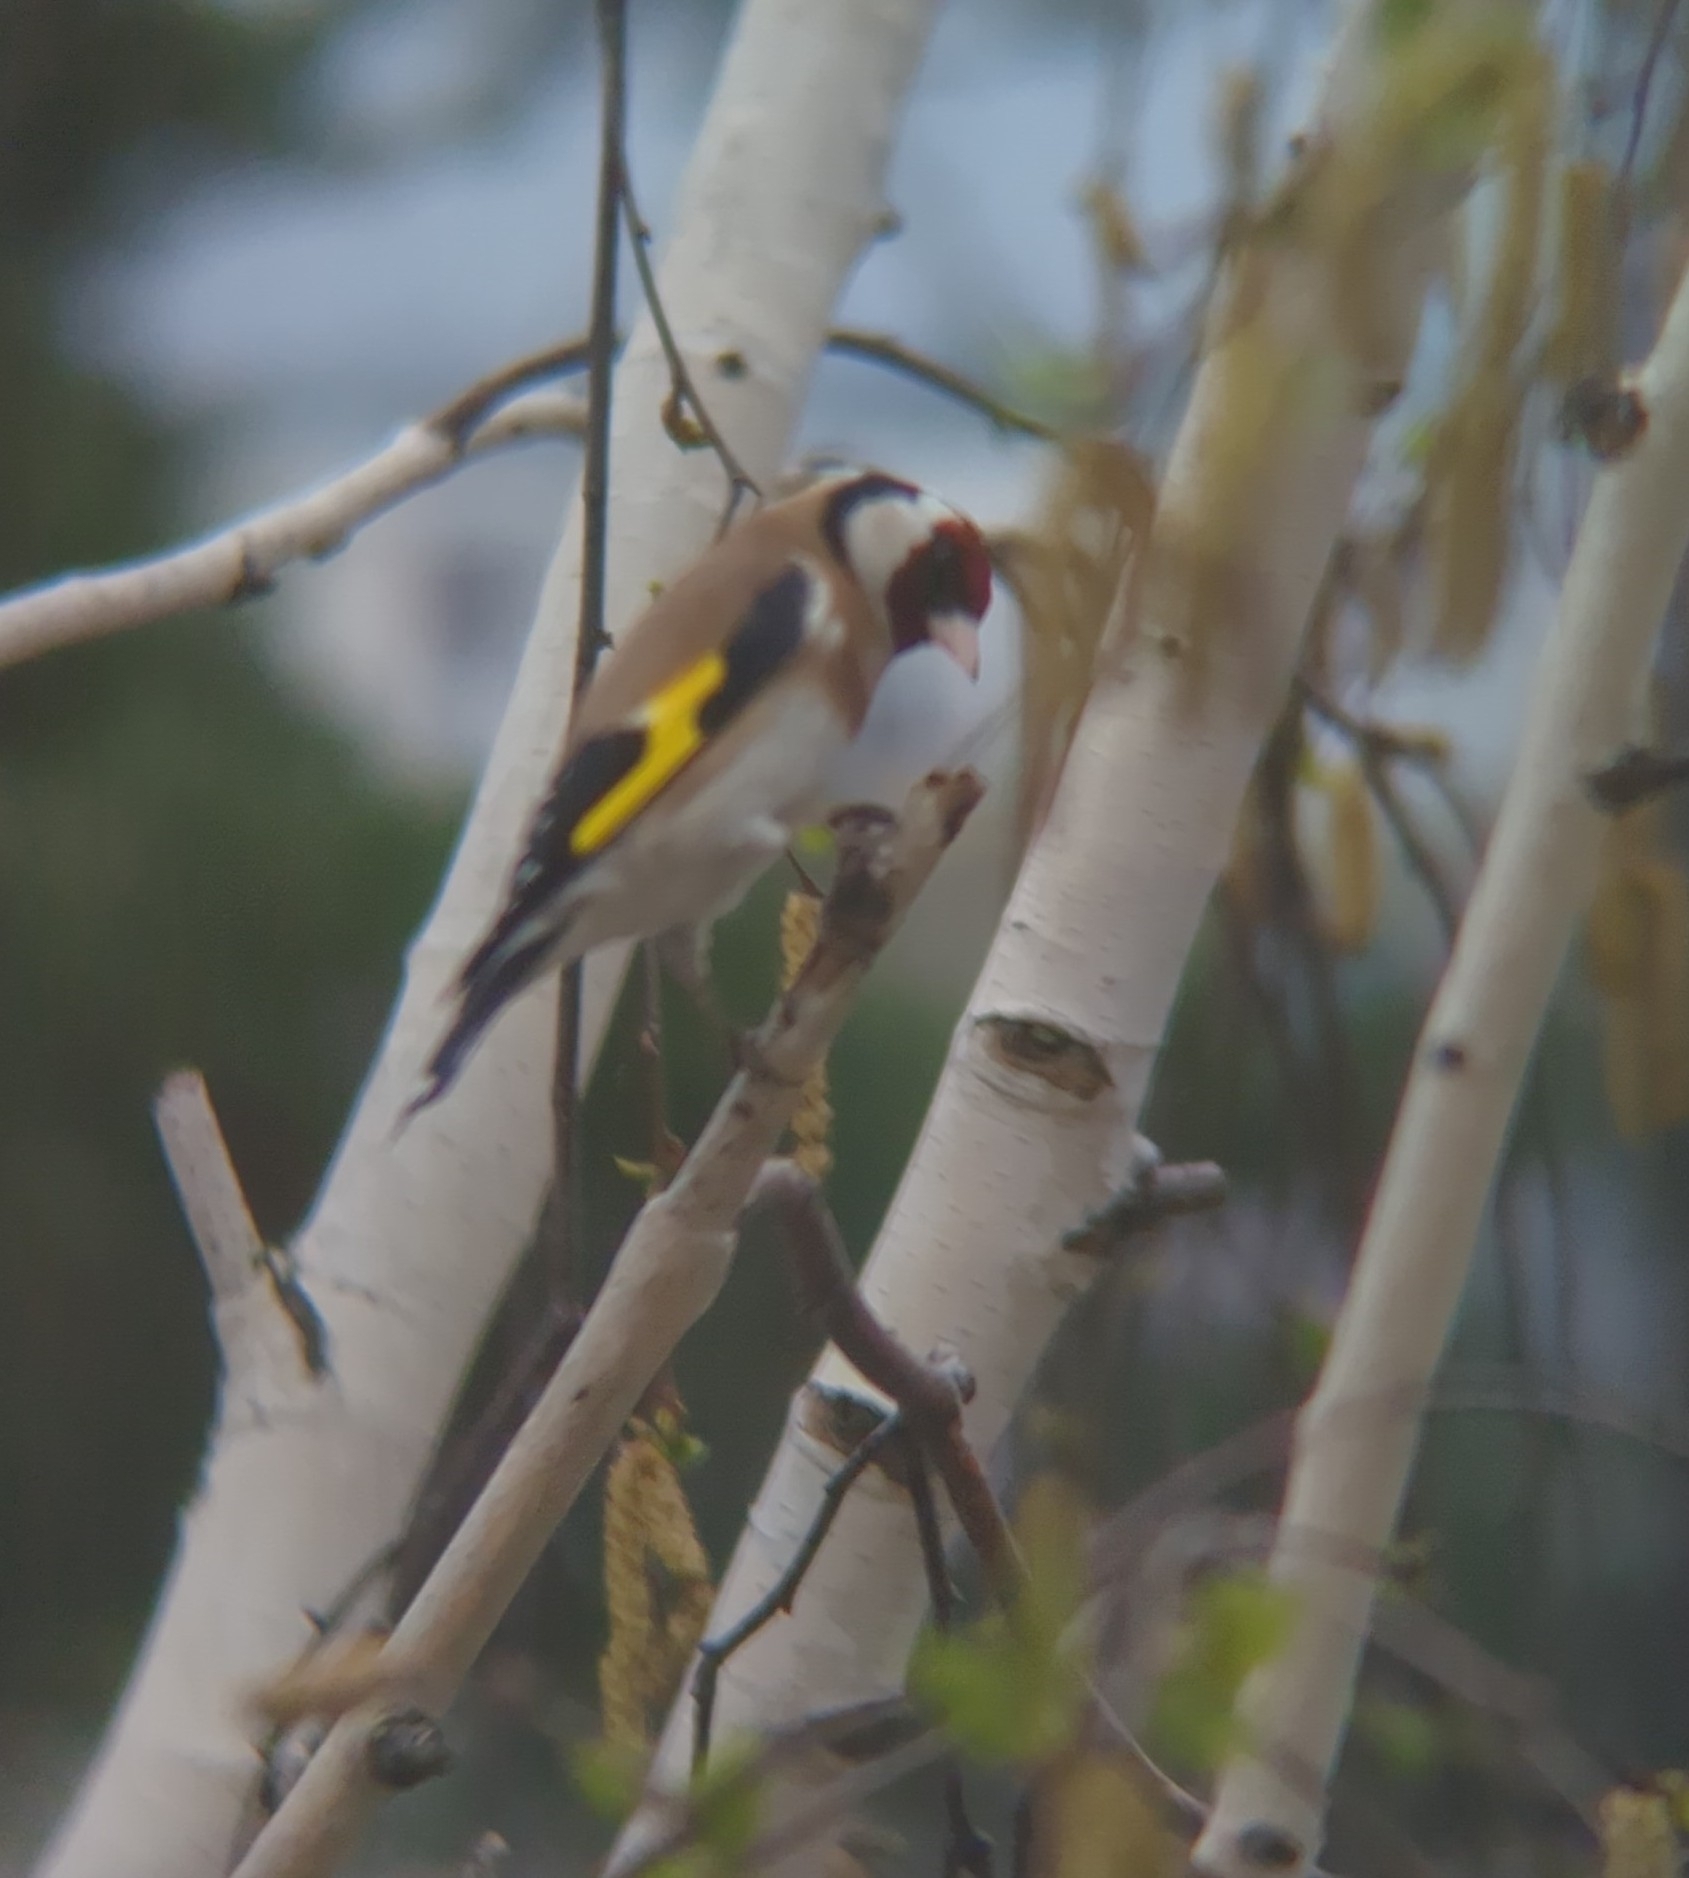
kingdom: Animalia
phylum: Chordata
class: Aves
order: Passeriformes
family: Fringillidae
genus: Carduelis
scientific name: Carduelis carduelis
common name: European goldfinch
